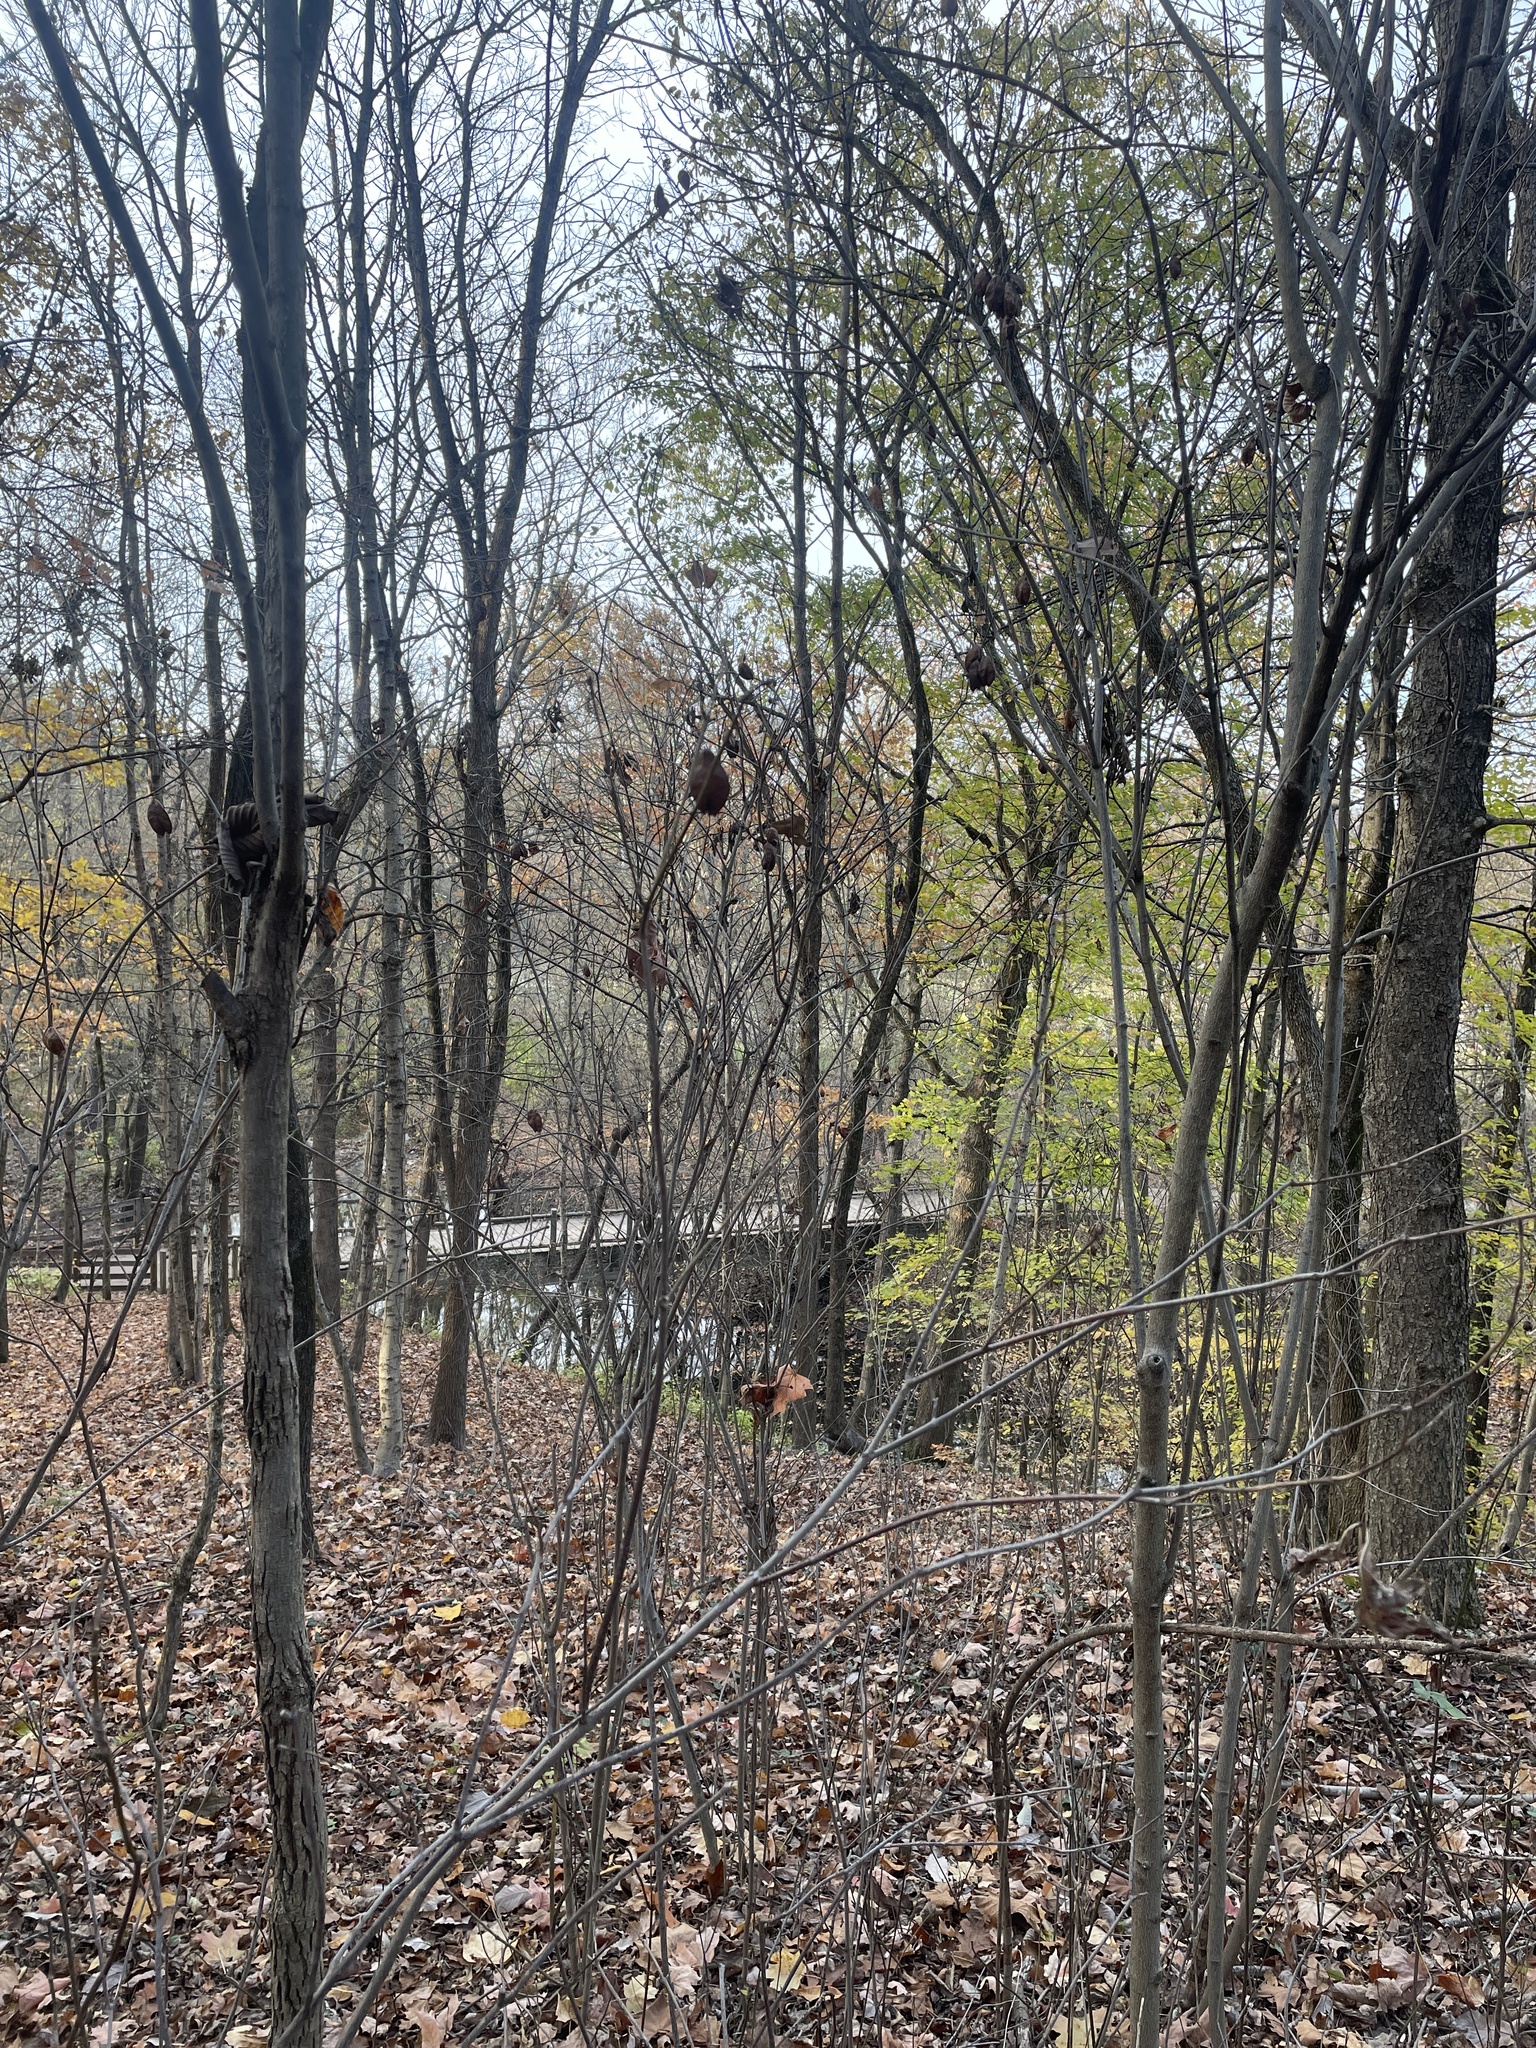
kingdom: Plantae
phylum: Tracheophyta
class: Magnoliopsida
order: Crossosomatales
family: Staphyleaceae
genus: Staphylea
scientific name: Staphylea trifolia
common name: American bladdernut
